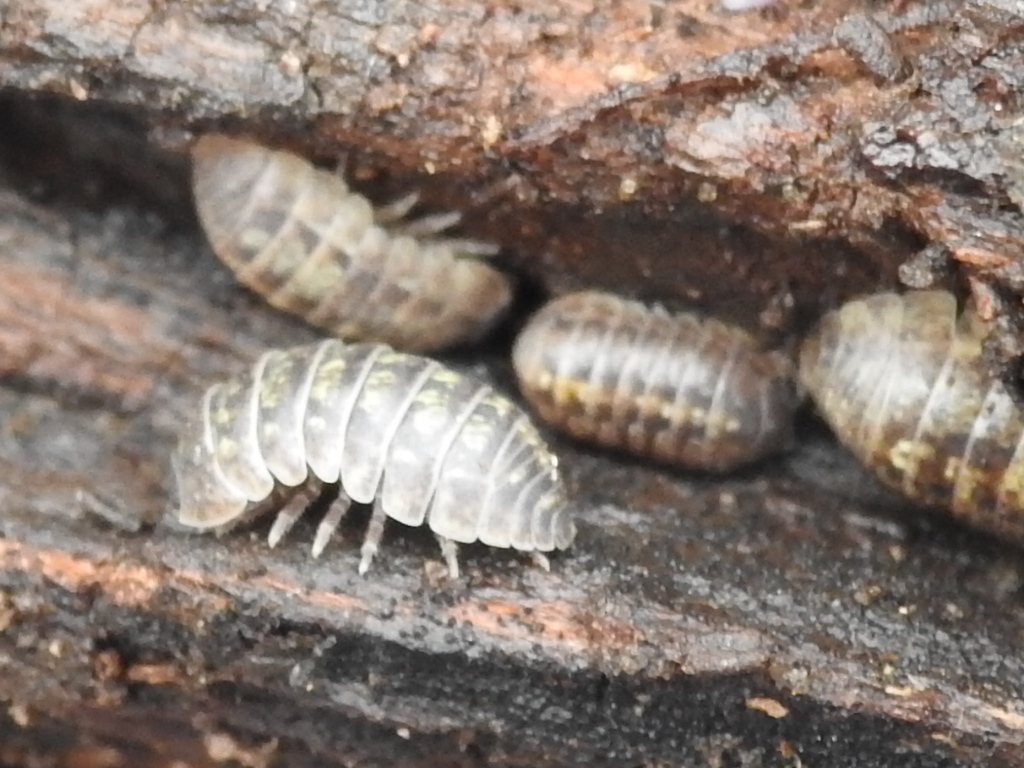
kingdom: Animalia
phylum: Arthropoda
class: Malacostraca
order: Isopoda
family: Armadillidiidae
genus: Armadillidium
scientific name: Armadillidium vulgare
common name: Common pill woodlouse
